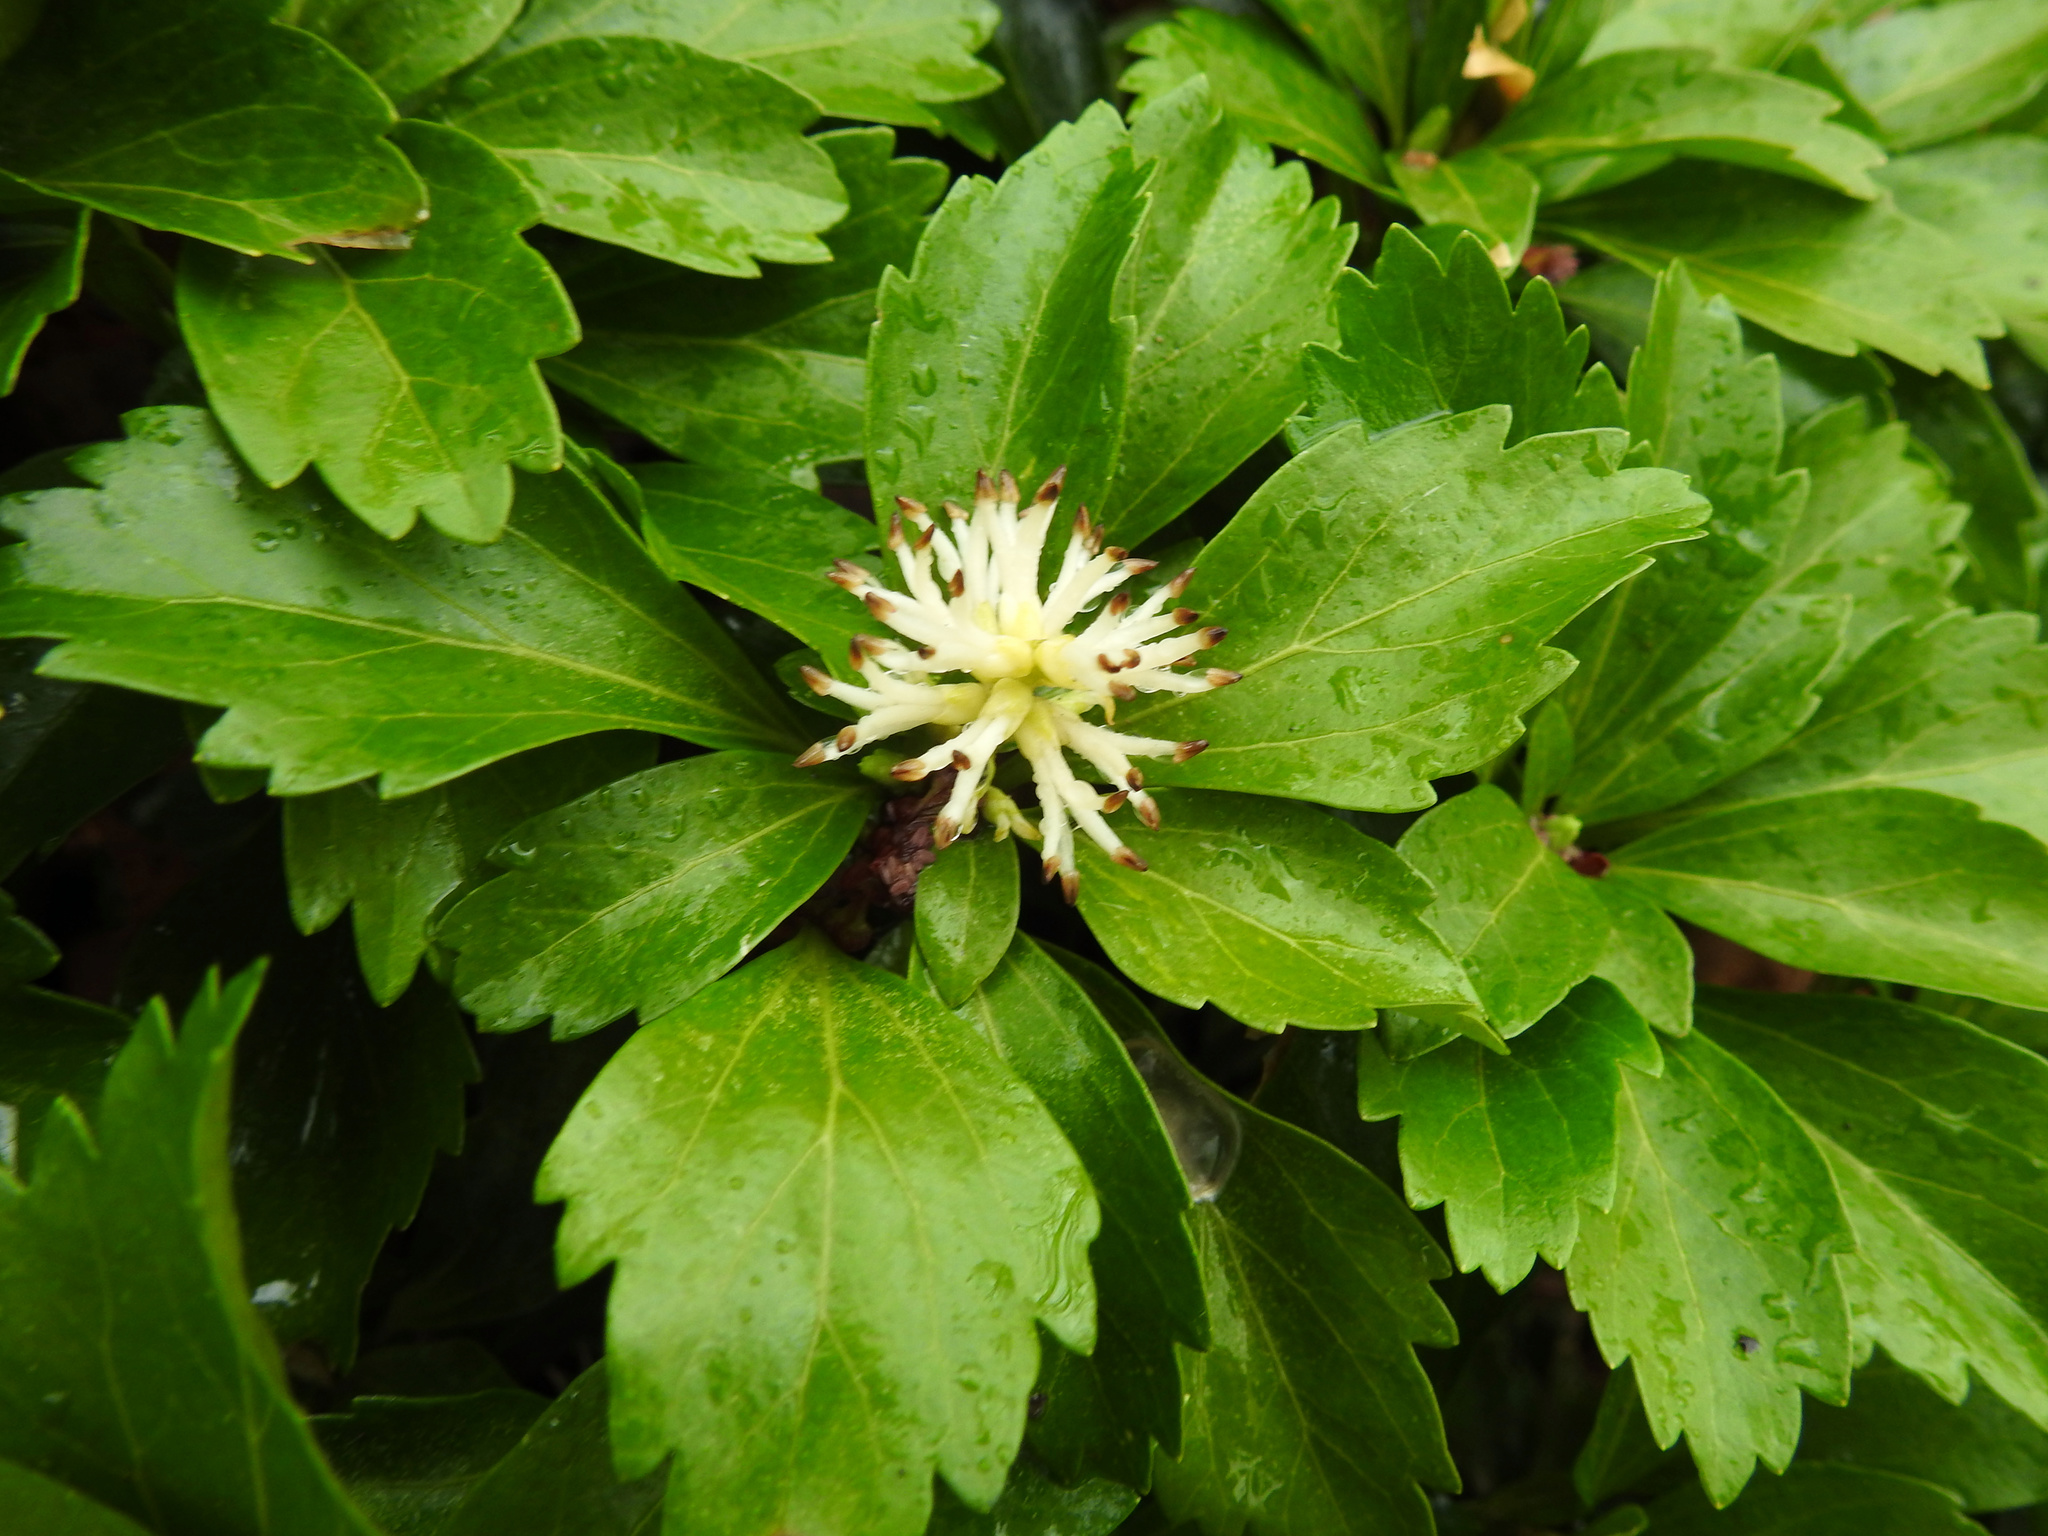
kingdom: Plantae
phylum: Tracheophyta
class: Magnoliopsida
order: Buxales
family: Buxaceae
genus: Pachysandra
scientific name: Pachysandra terminalis
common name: Japanese pachysandra
